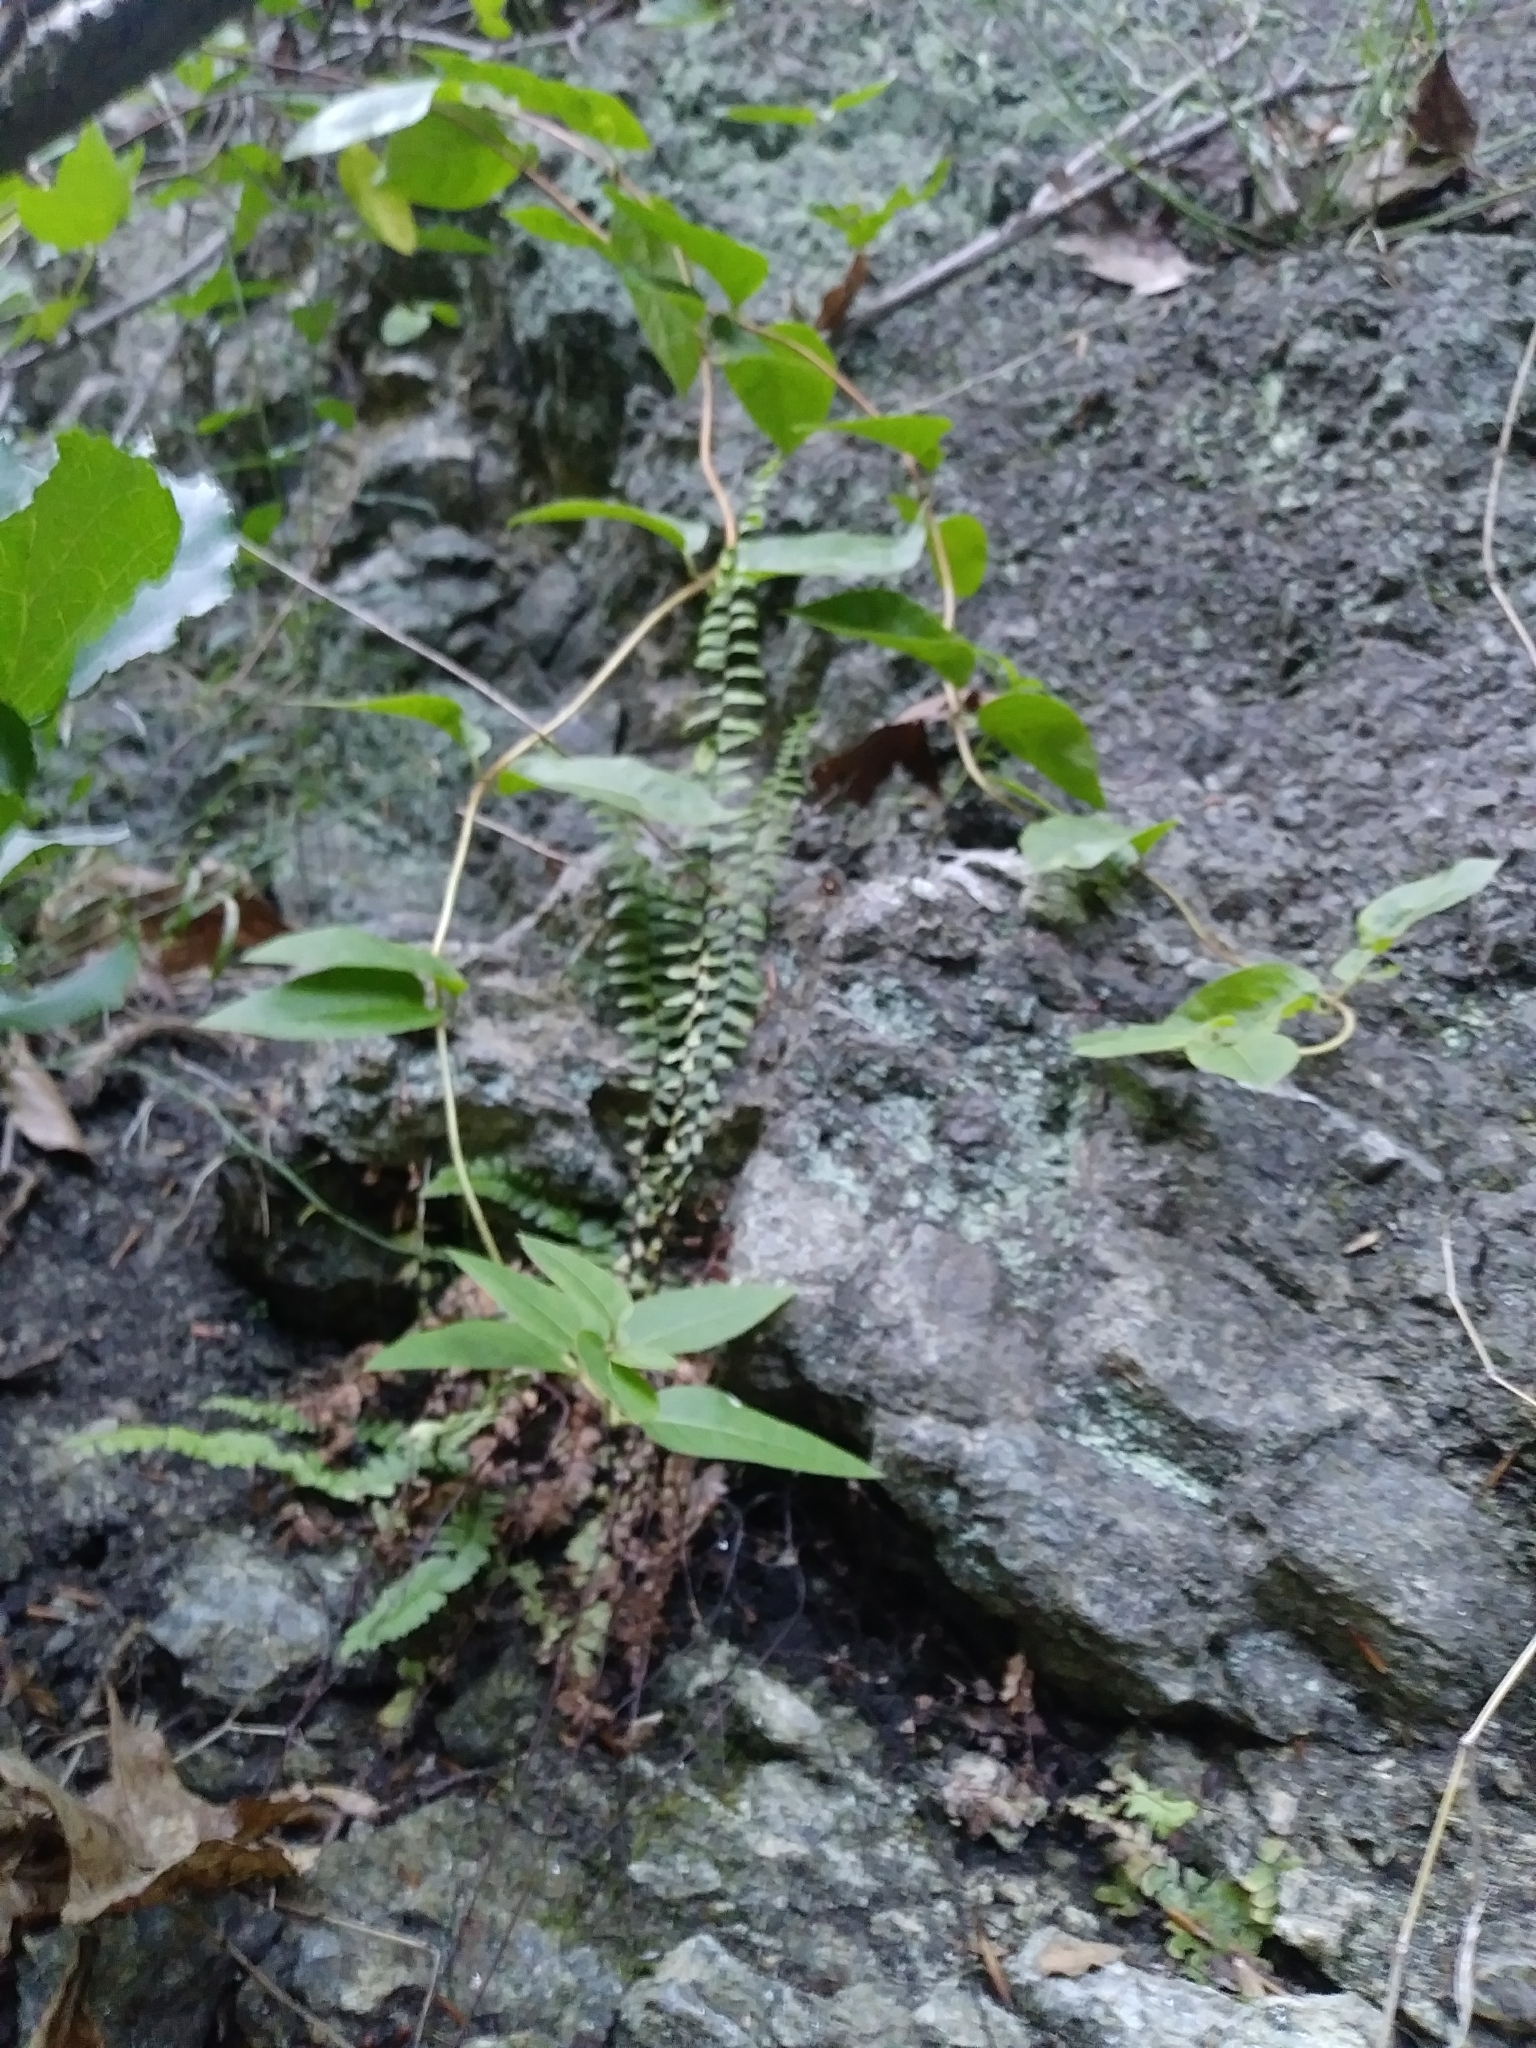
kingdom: Plantae
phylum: Tracheophyta
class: Polypodiopsida
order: Polypodiales
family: Aspleniaceae
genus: Asplenium
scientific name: Asplenium platyneuron
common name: Ebony spleenwort
